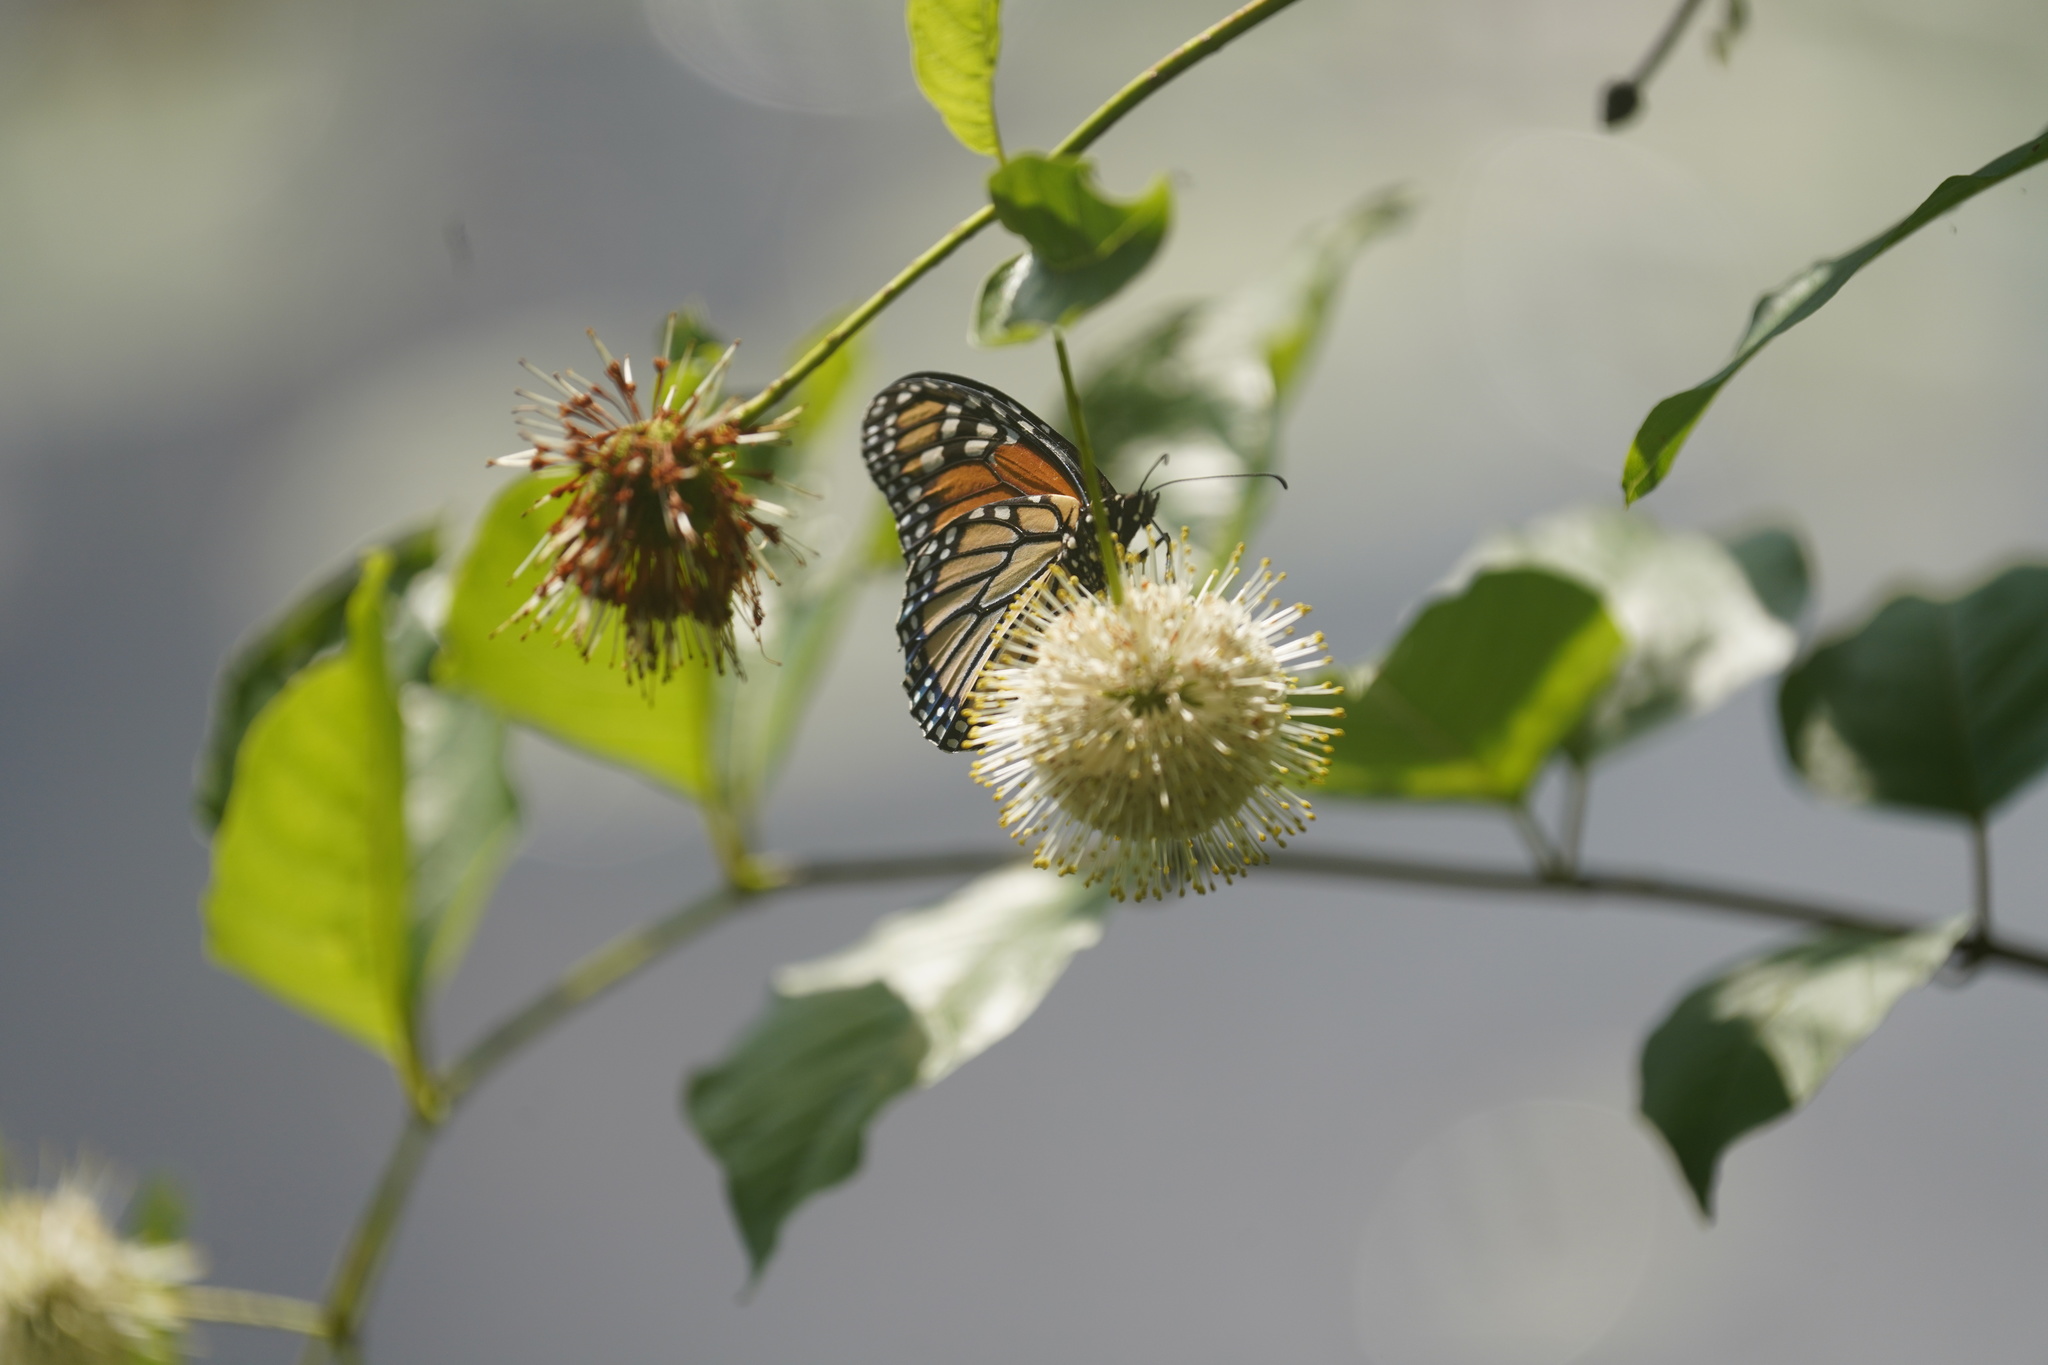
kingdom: Animalia
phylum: Arthropoda
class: Insecta
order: Lepidoptera
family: Nymphalidae
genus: Danaus
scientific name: Danaus plexippus
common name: Monarch
